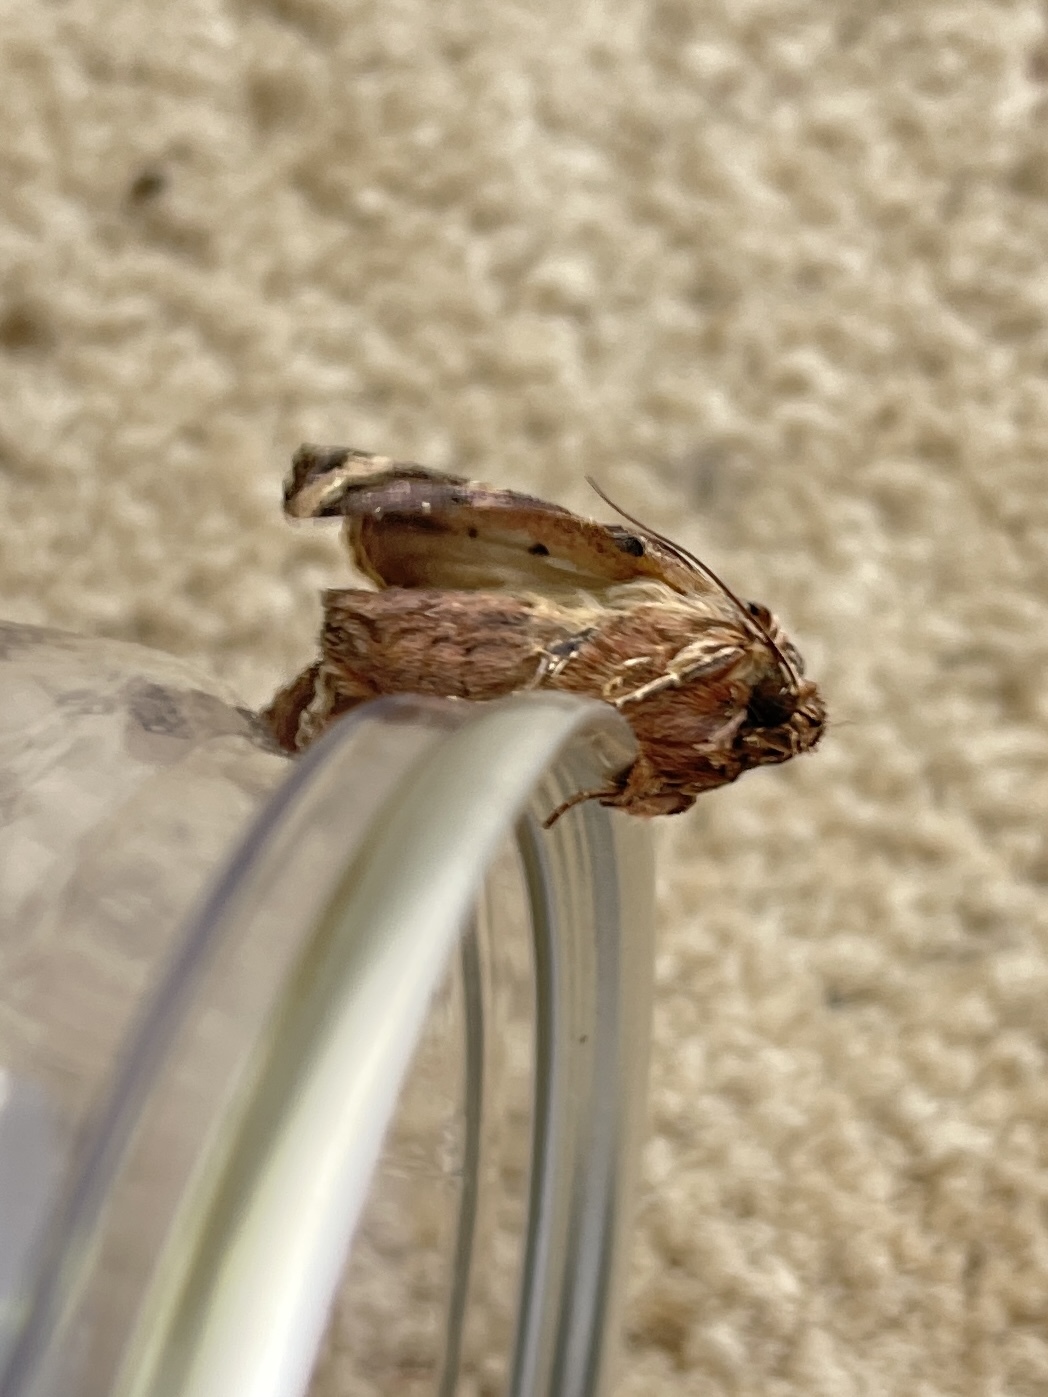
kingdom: Animalia
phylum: Arthropoda
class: Insecta
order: Lepidoptera
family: Noctuidae
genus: Dargida
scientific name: Dargida procinctus
